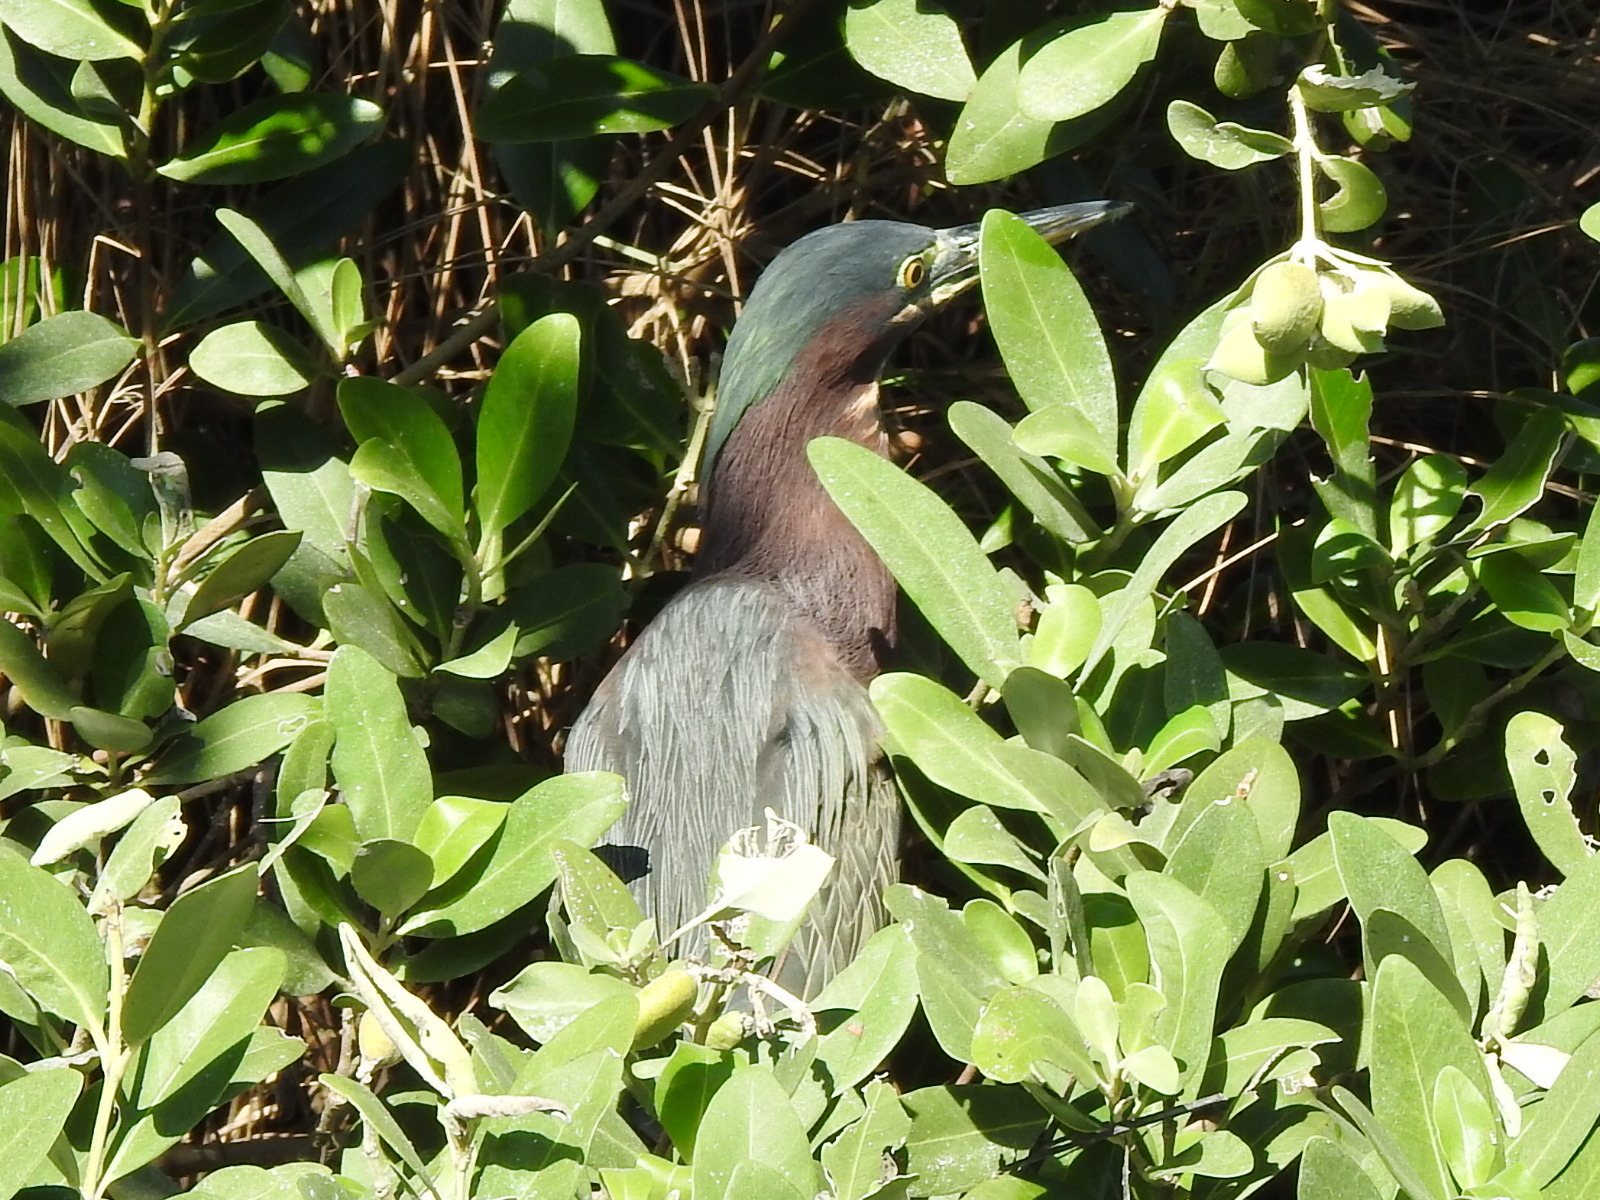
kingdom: Animalia
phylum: Chordata
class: Aves
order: Pelecaniformes
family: Ardeidae
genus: Butorides
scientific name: Butorides virescens
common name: Green heron
